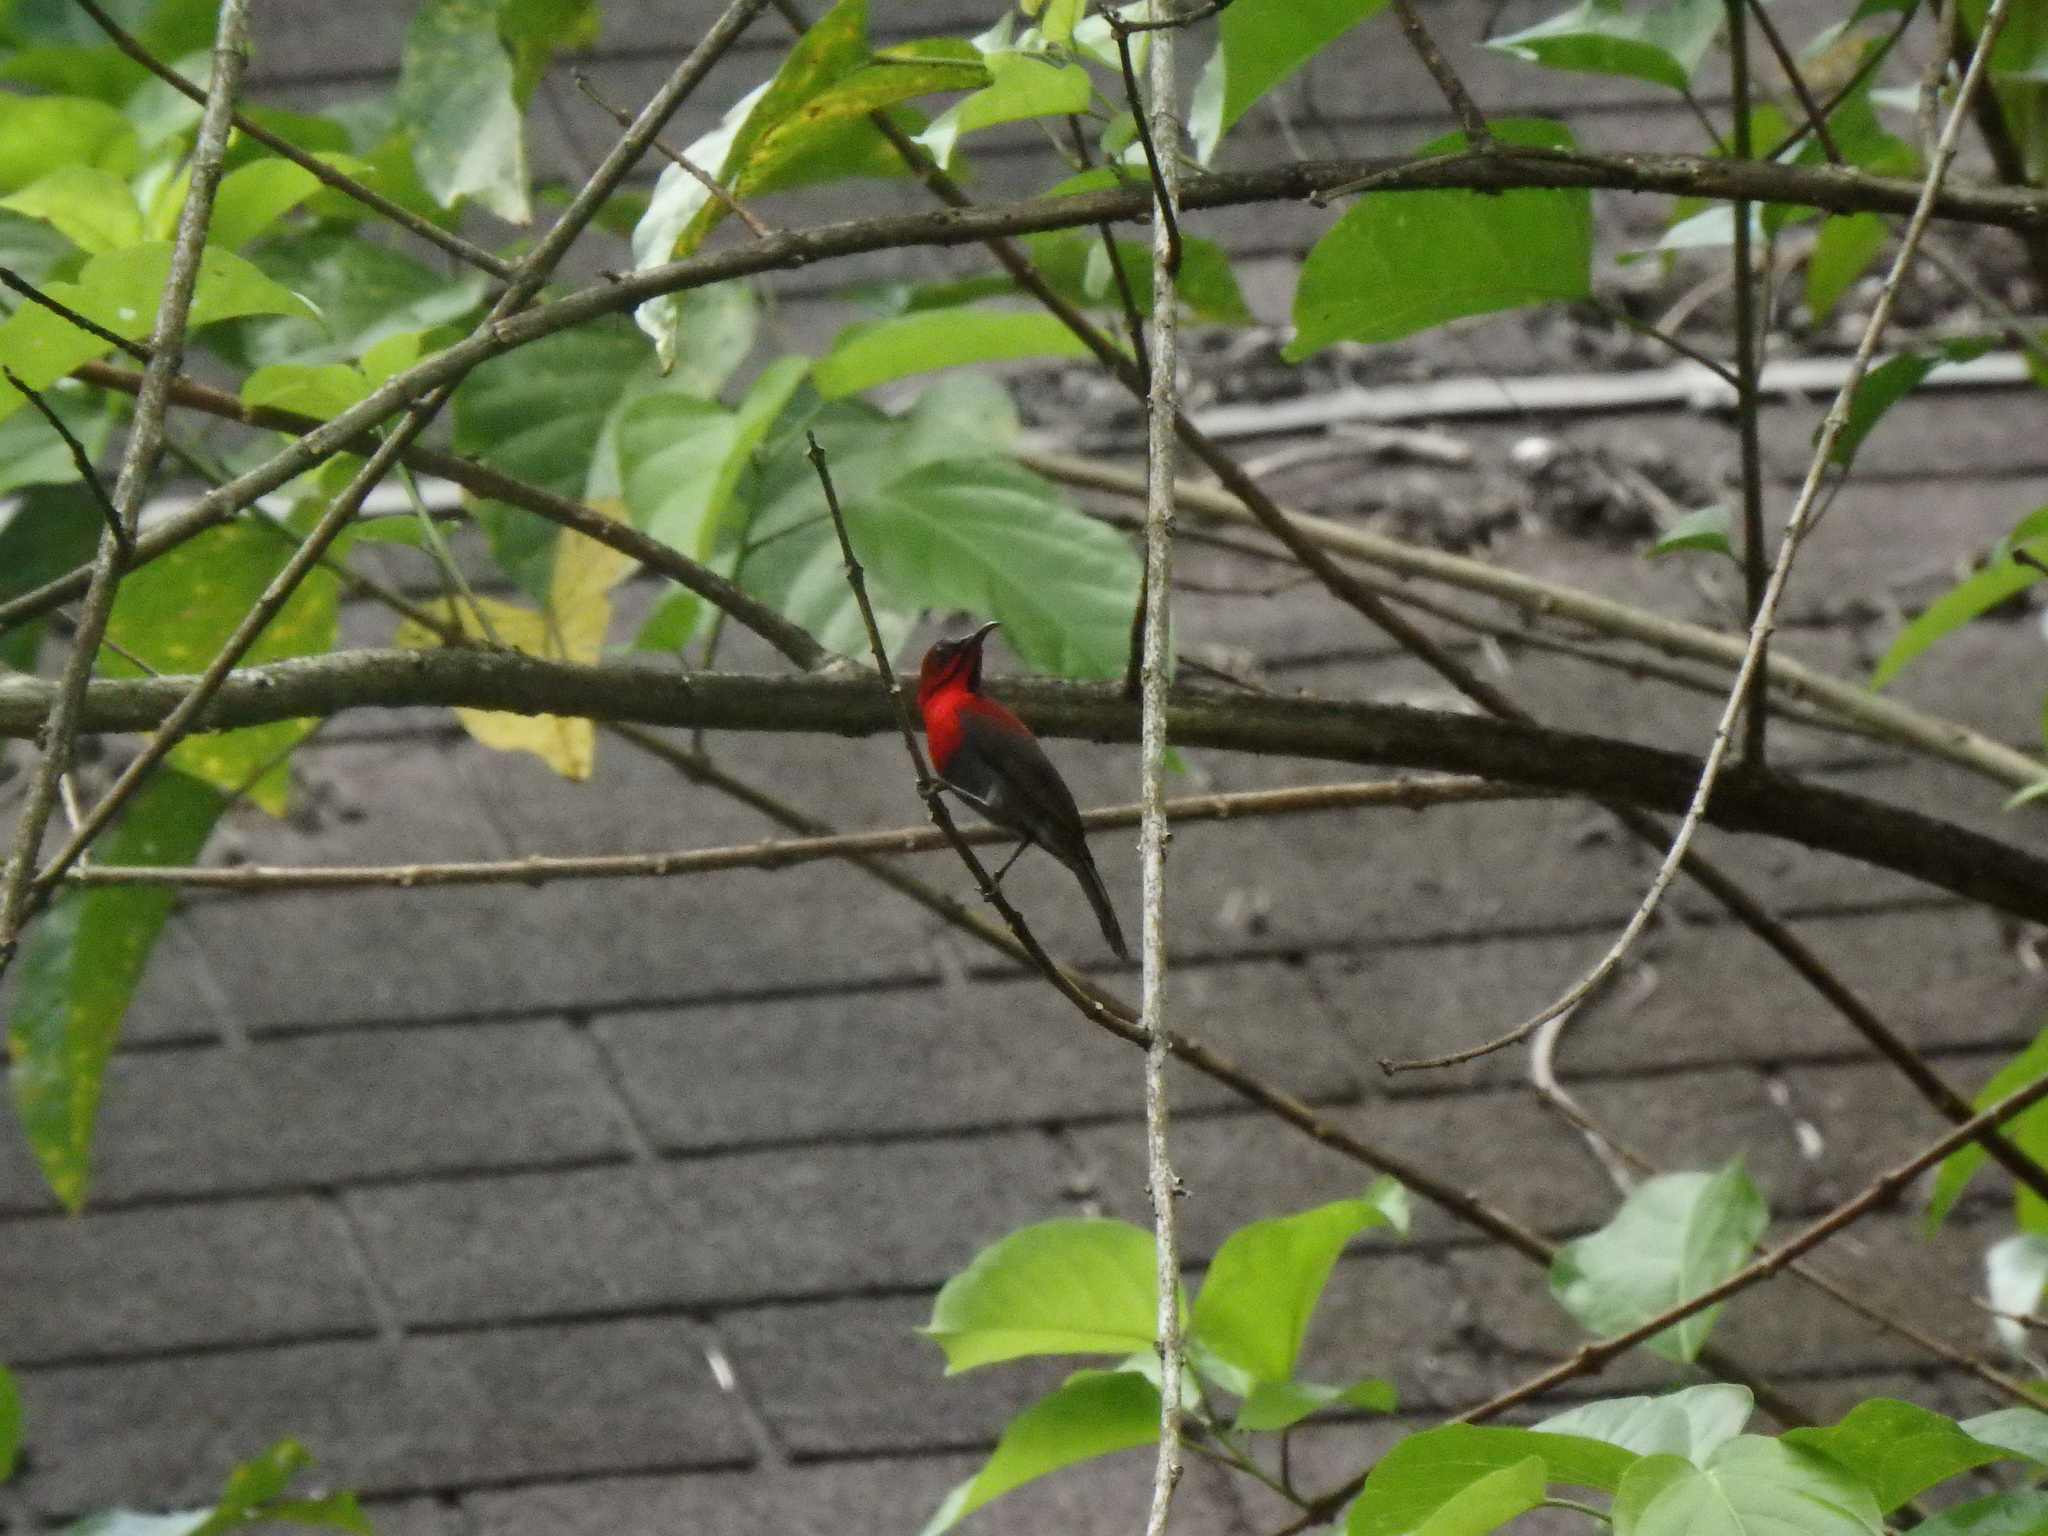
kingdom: Animalia
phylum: Chordata
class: Aves
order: Passeriformes
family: Nectariniidae
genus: Aethopyga
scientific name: Aethopyga siparaja
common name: Crimson sunbird
